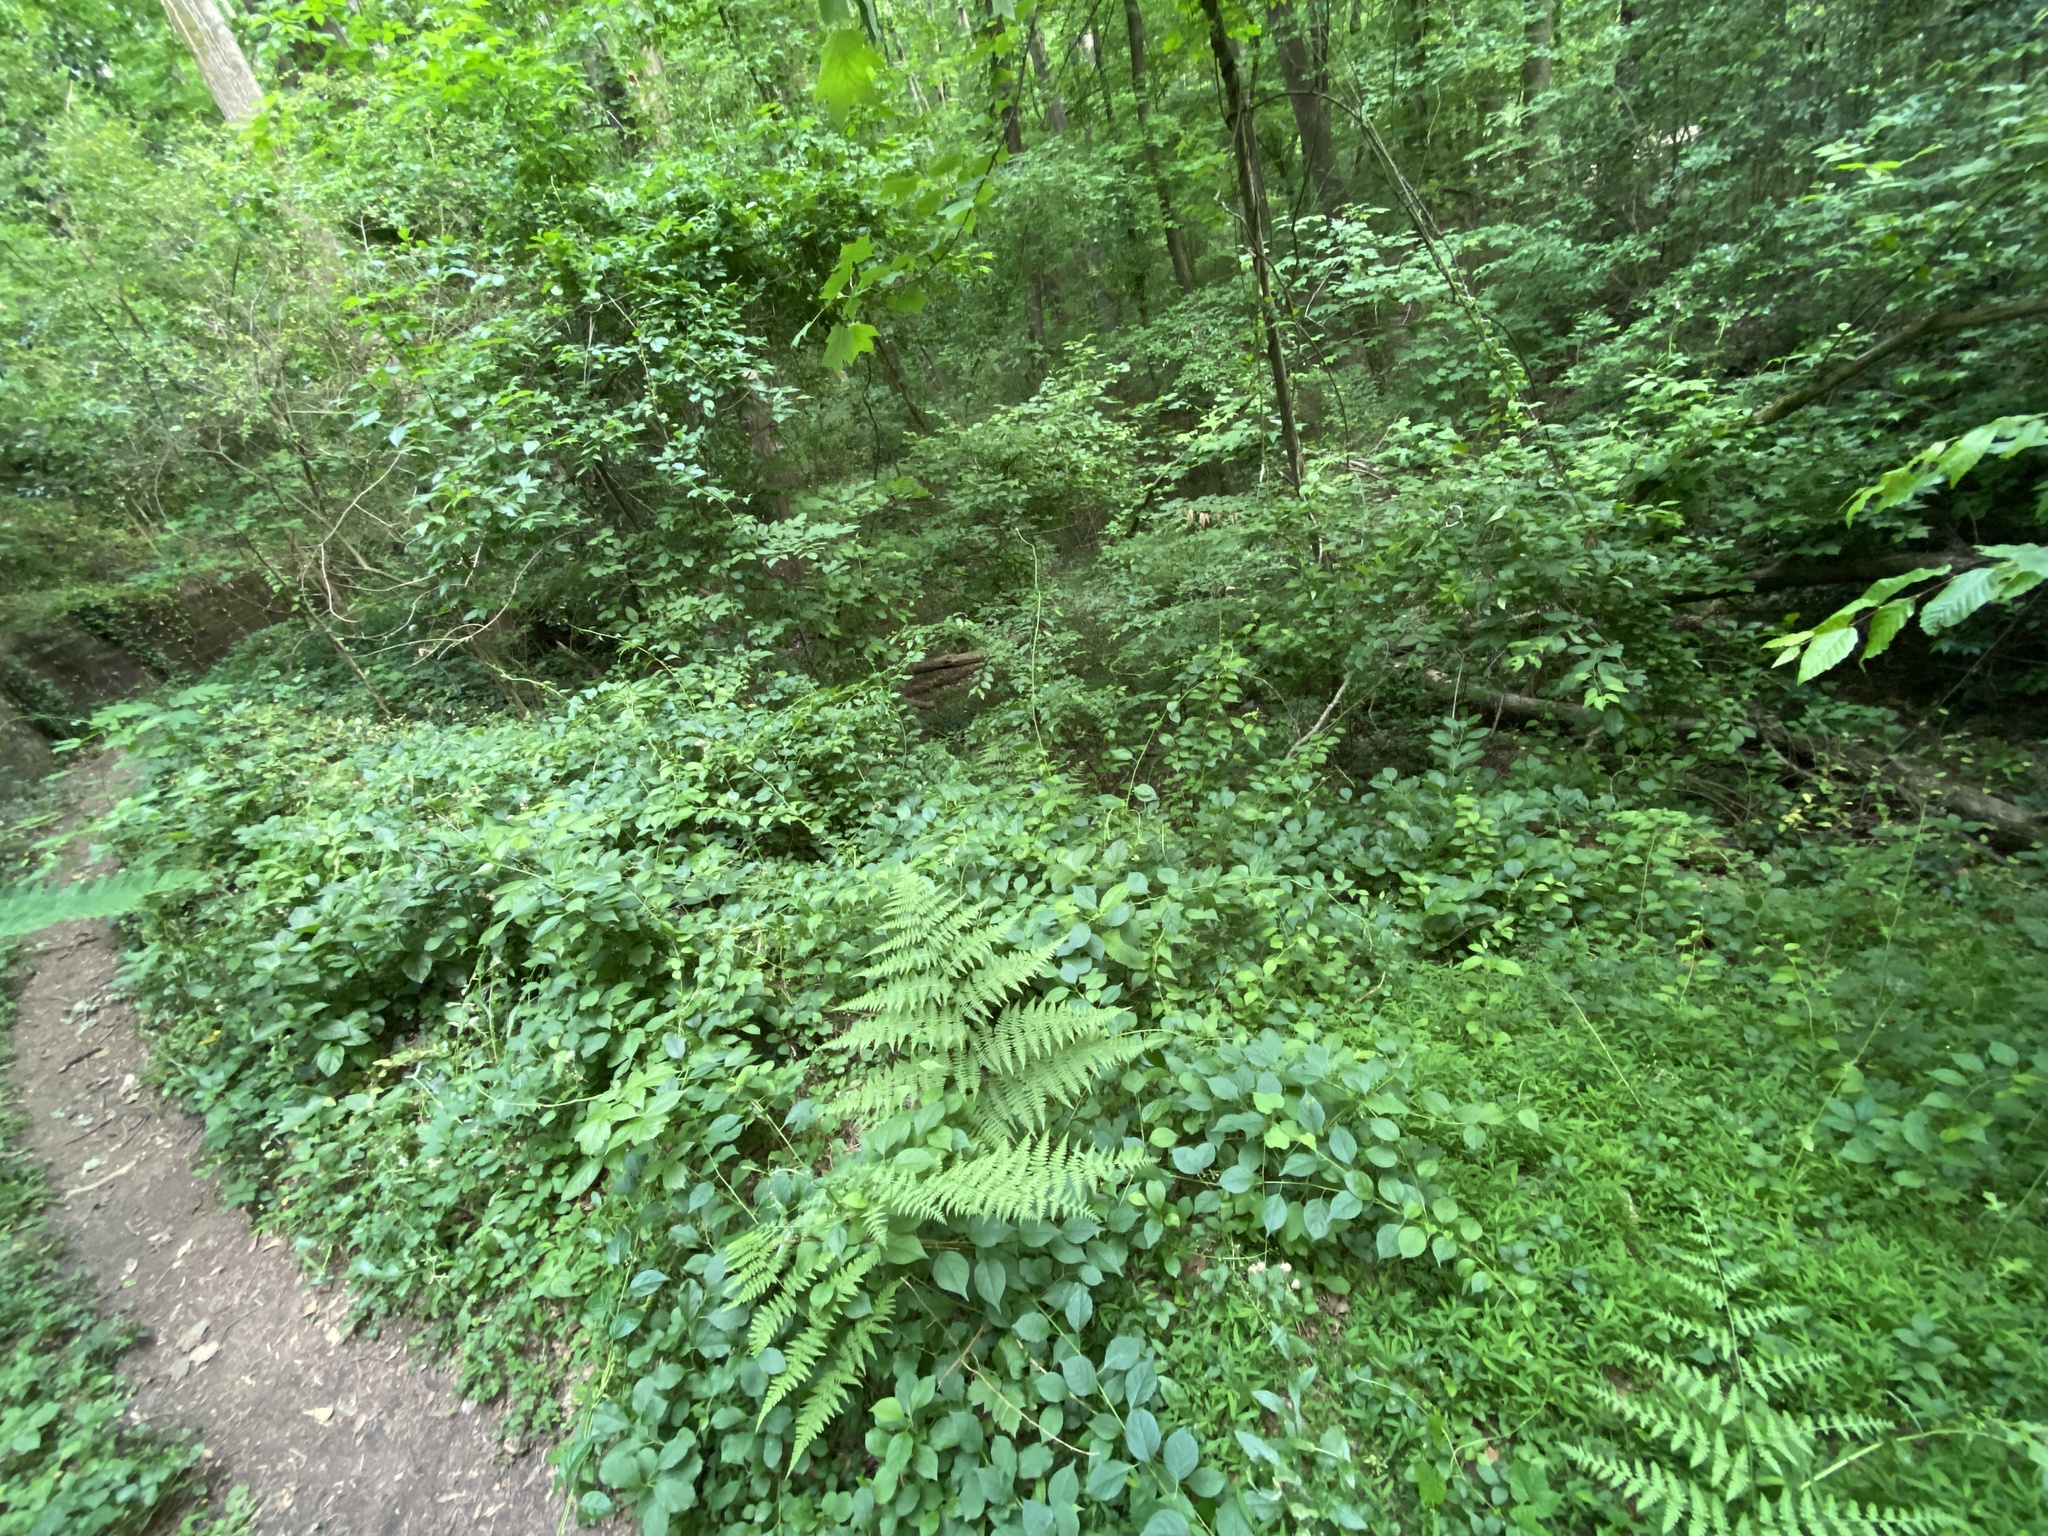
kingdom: Plantae
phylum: Tracheophyta
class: Magnoliopsida
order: Celastrales
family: Celastraceae
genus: Celastrus
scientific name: Celastrus orbiculatus
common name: Oriental bittersweet
